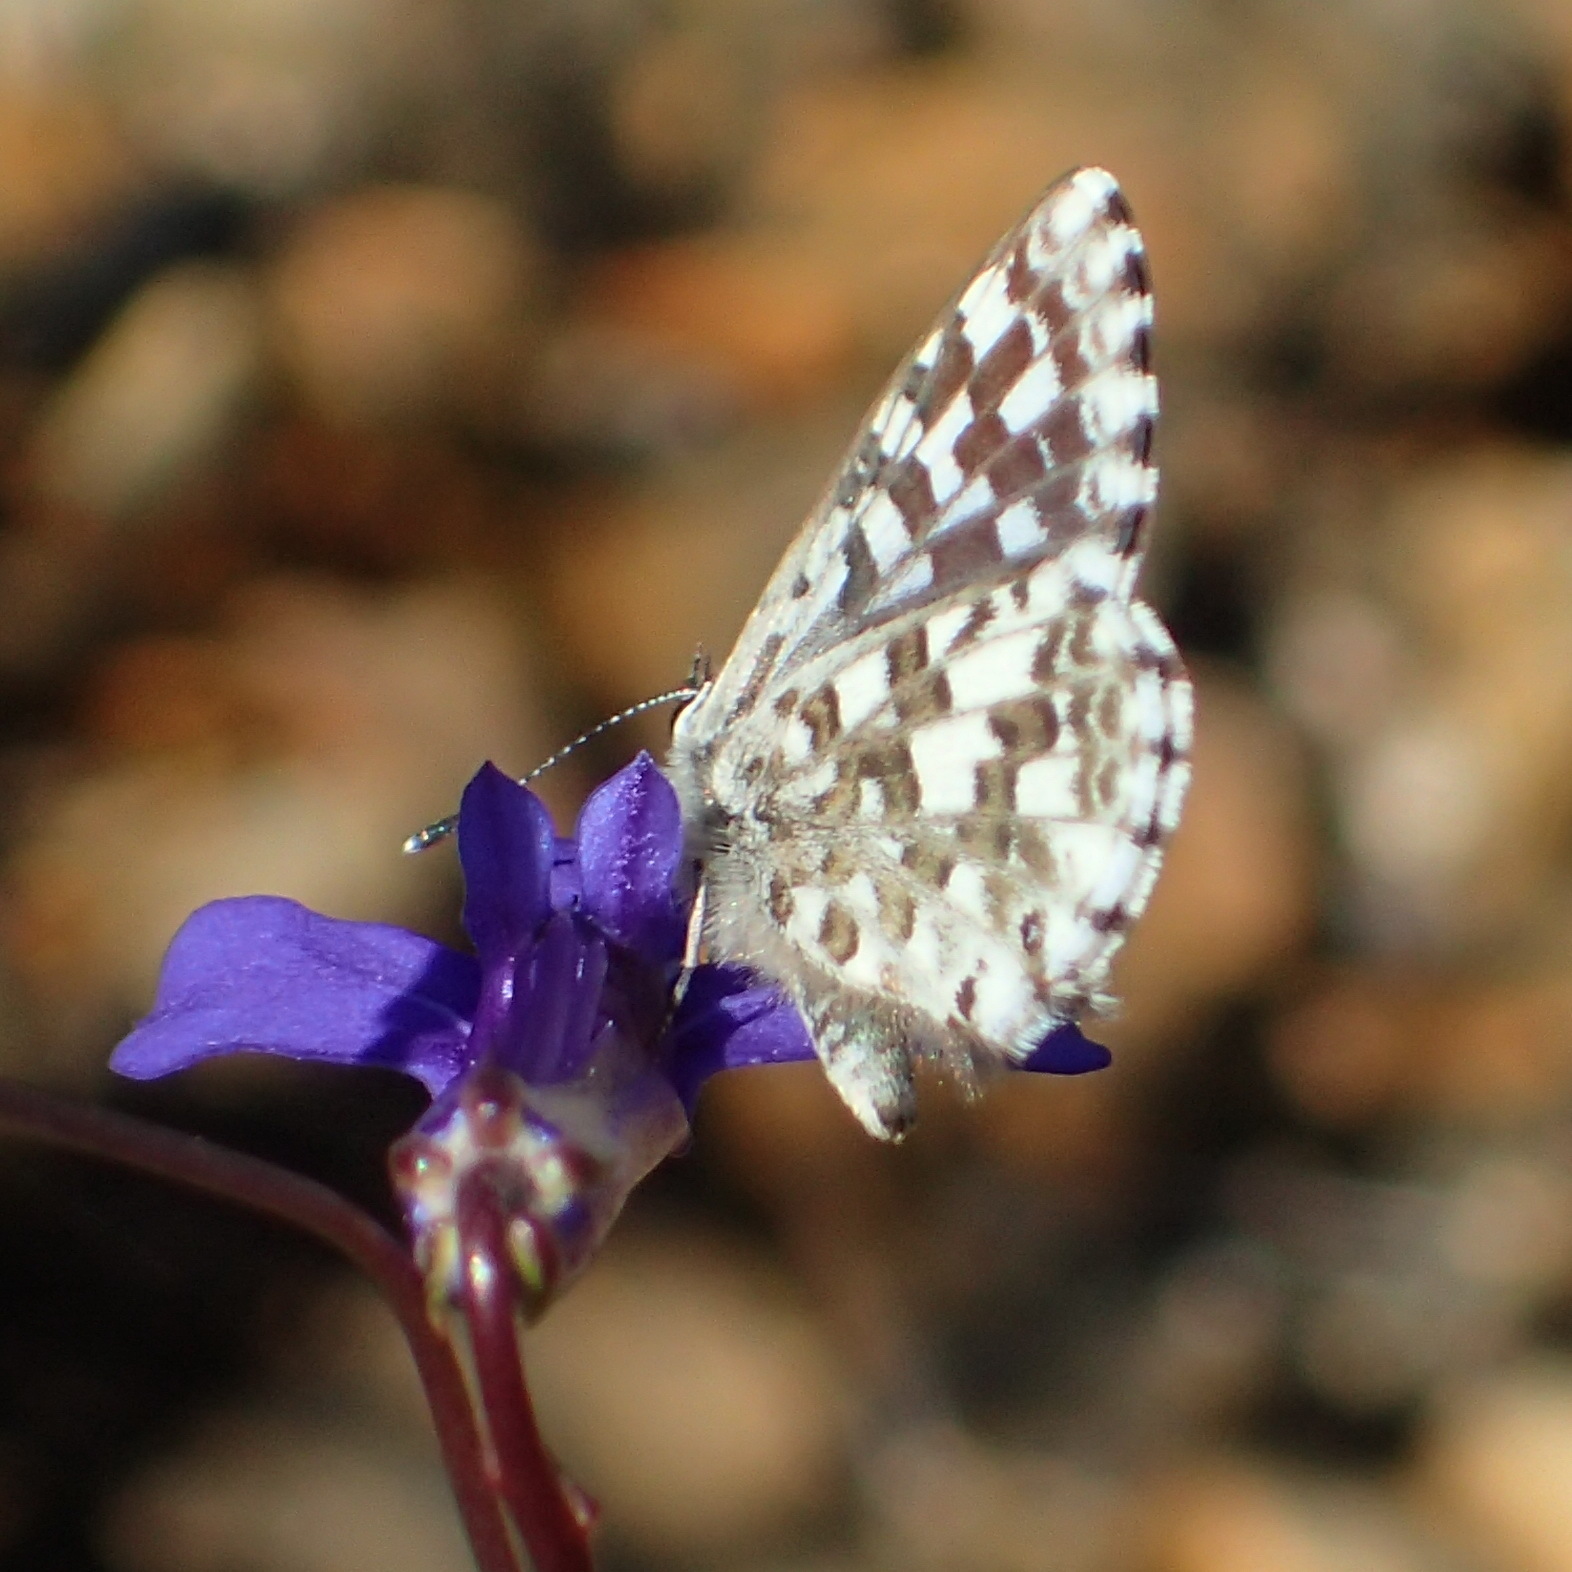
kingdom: Animalia
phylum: Arthropoda
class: Insecta
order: Lepidoptera
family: Lycaenidae
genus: Tarucus
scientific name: Tarucus thespis
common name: Vivid dotted blue
